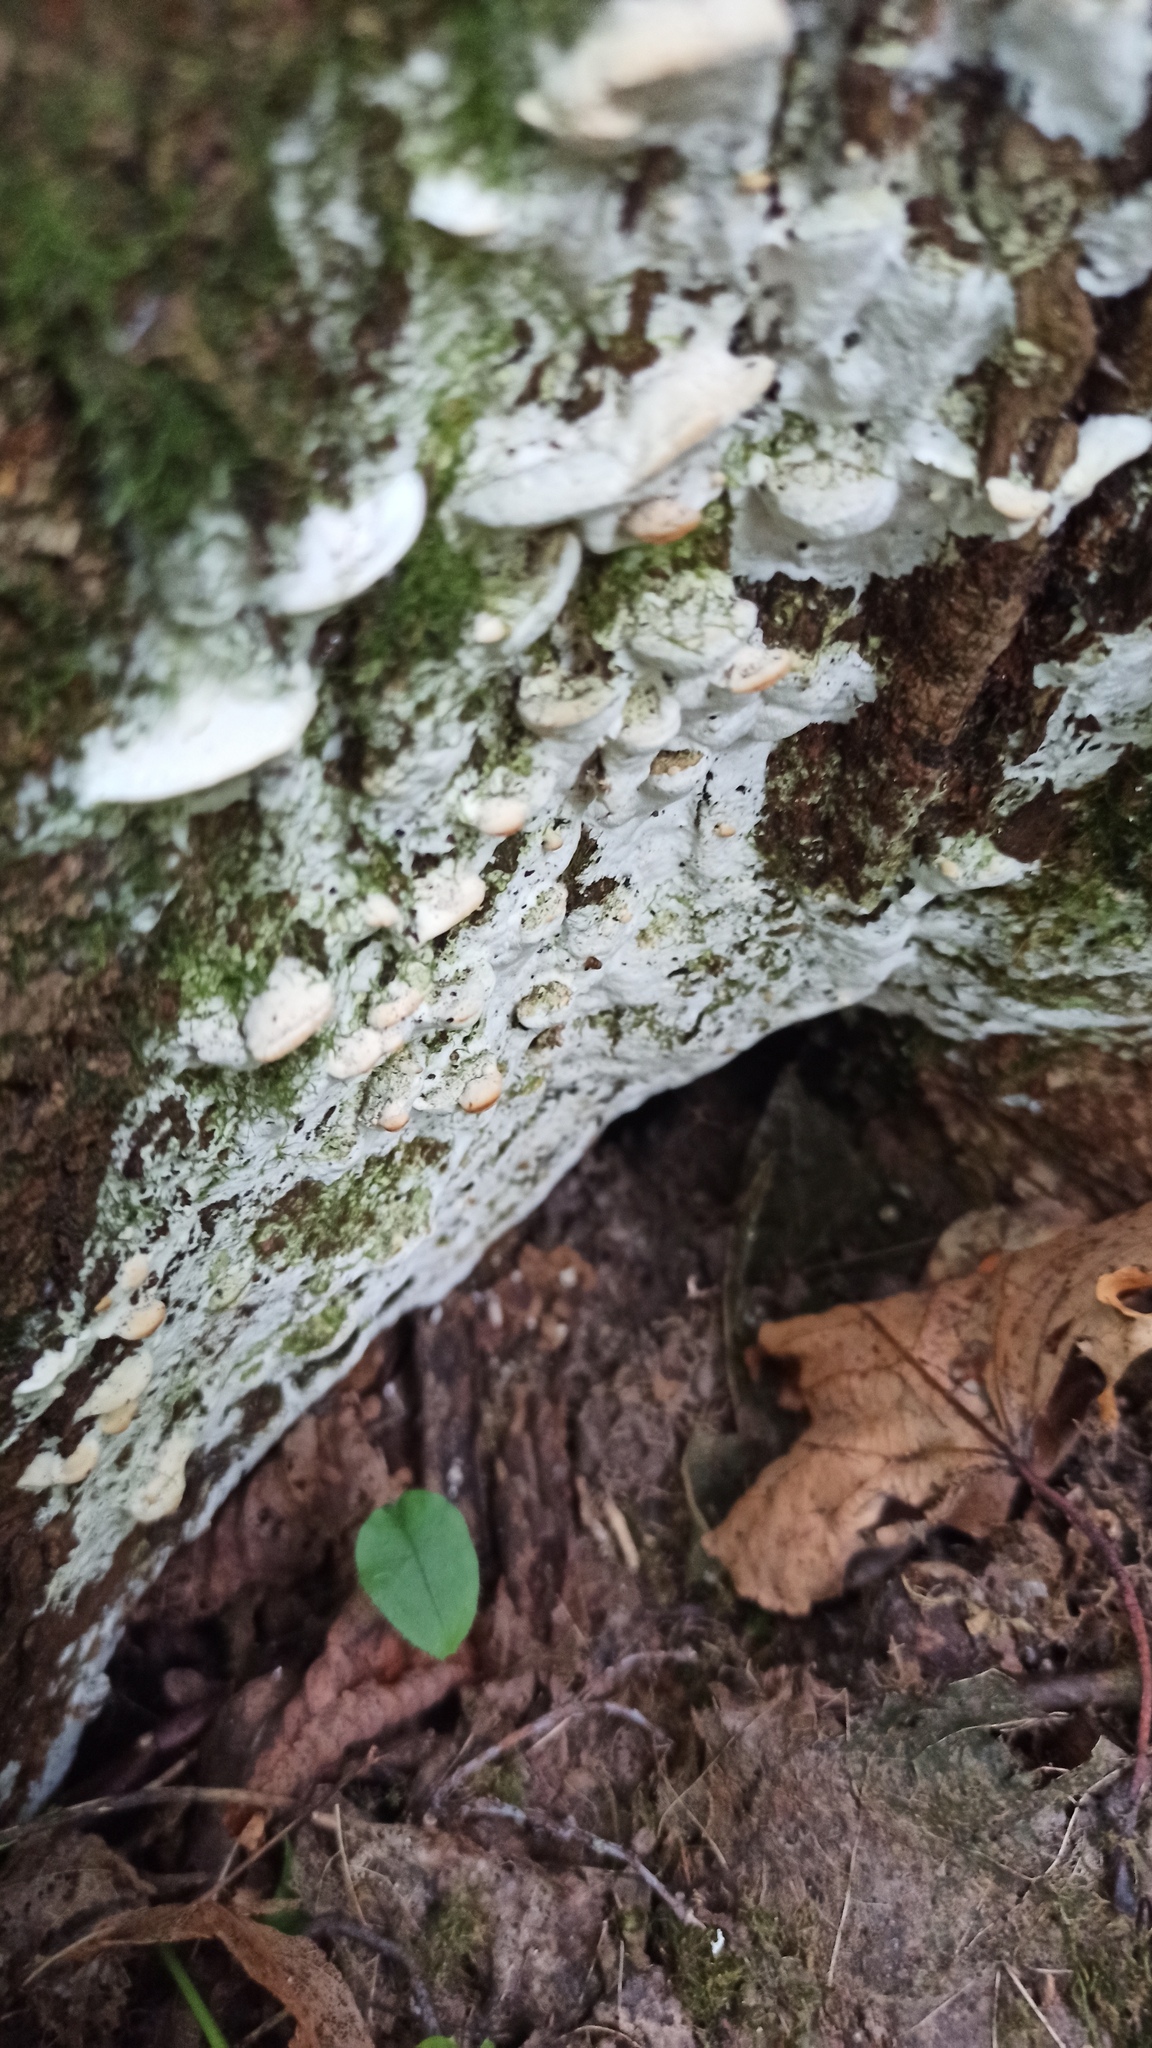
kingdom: Fungi
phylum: Basidiomycota
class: Agaricomycetes
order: Hymenochaetales
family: Oxyporaceae
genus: Oxyporus
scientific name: Oxyporus populinus
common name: Poplar bracket
